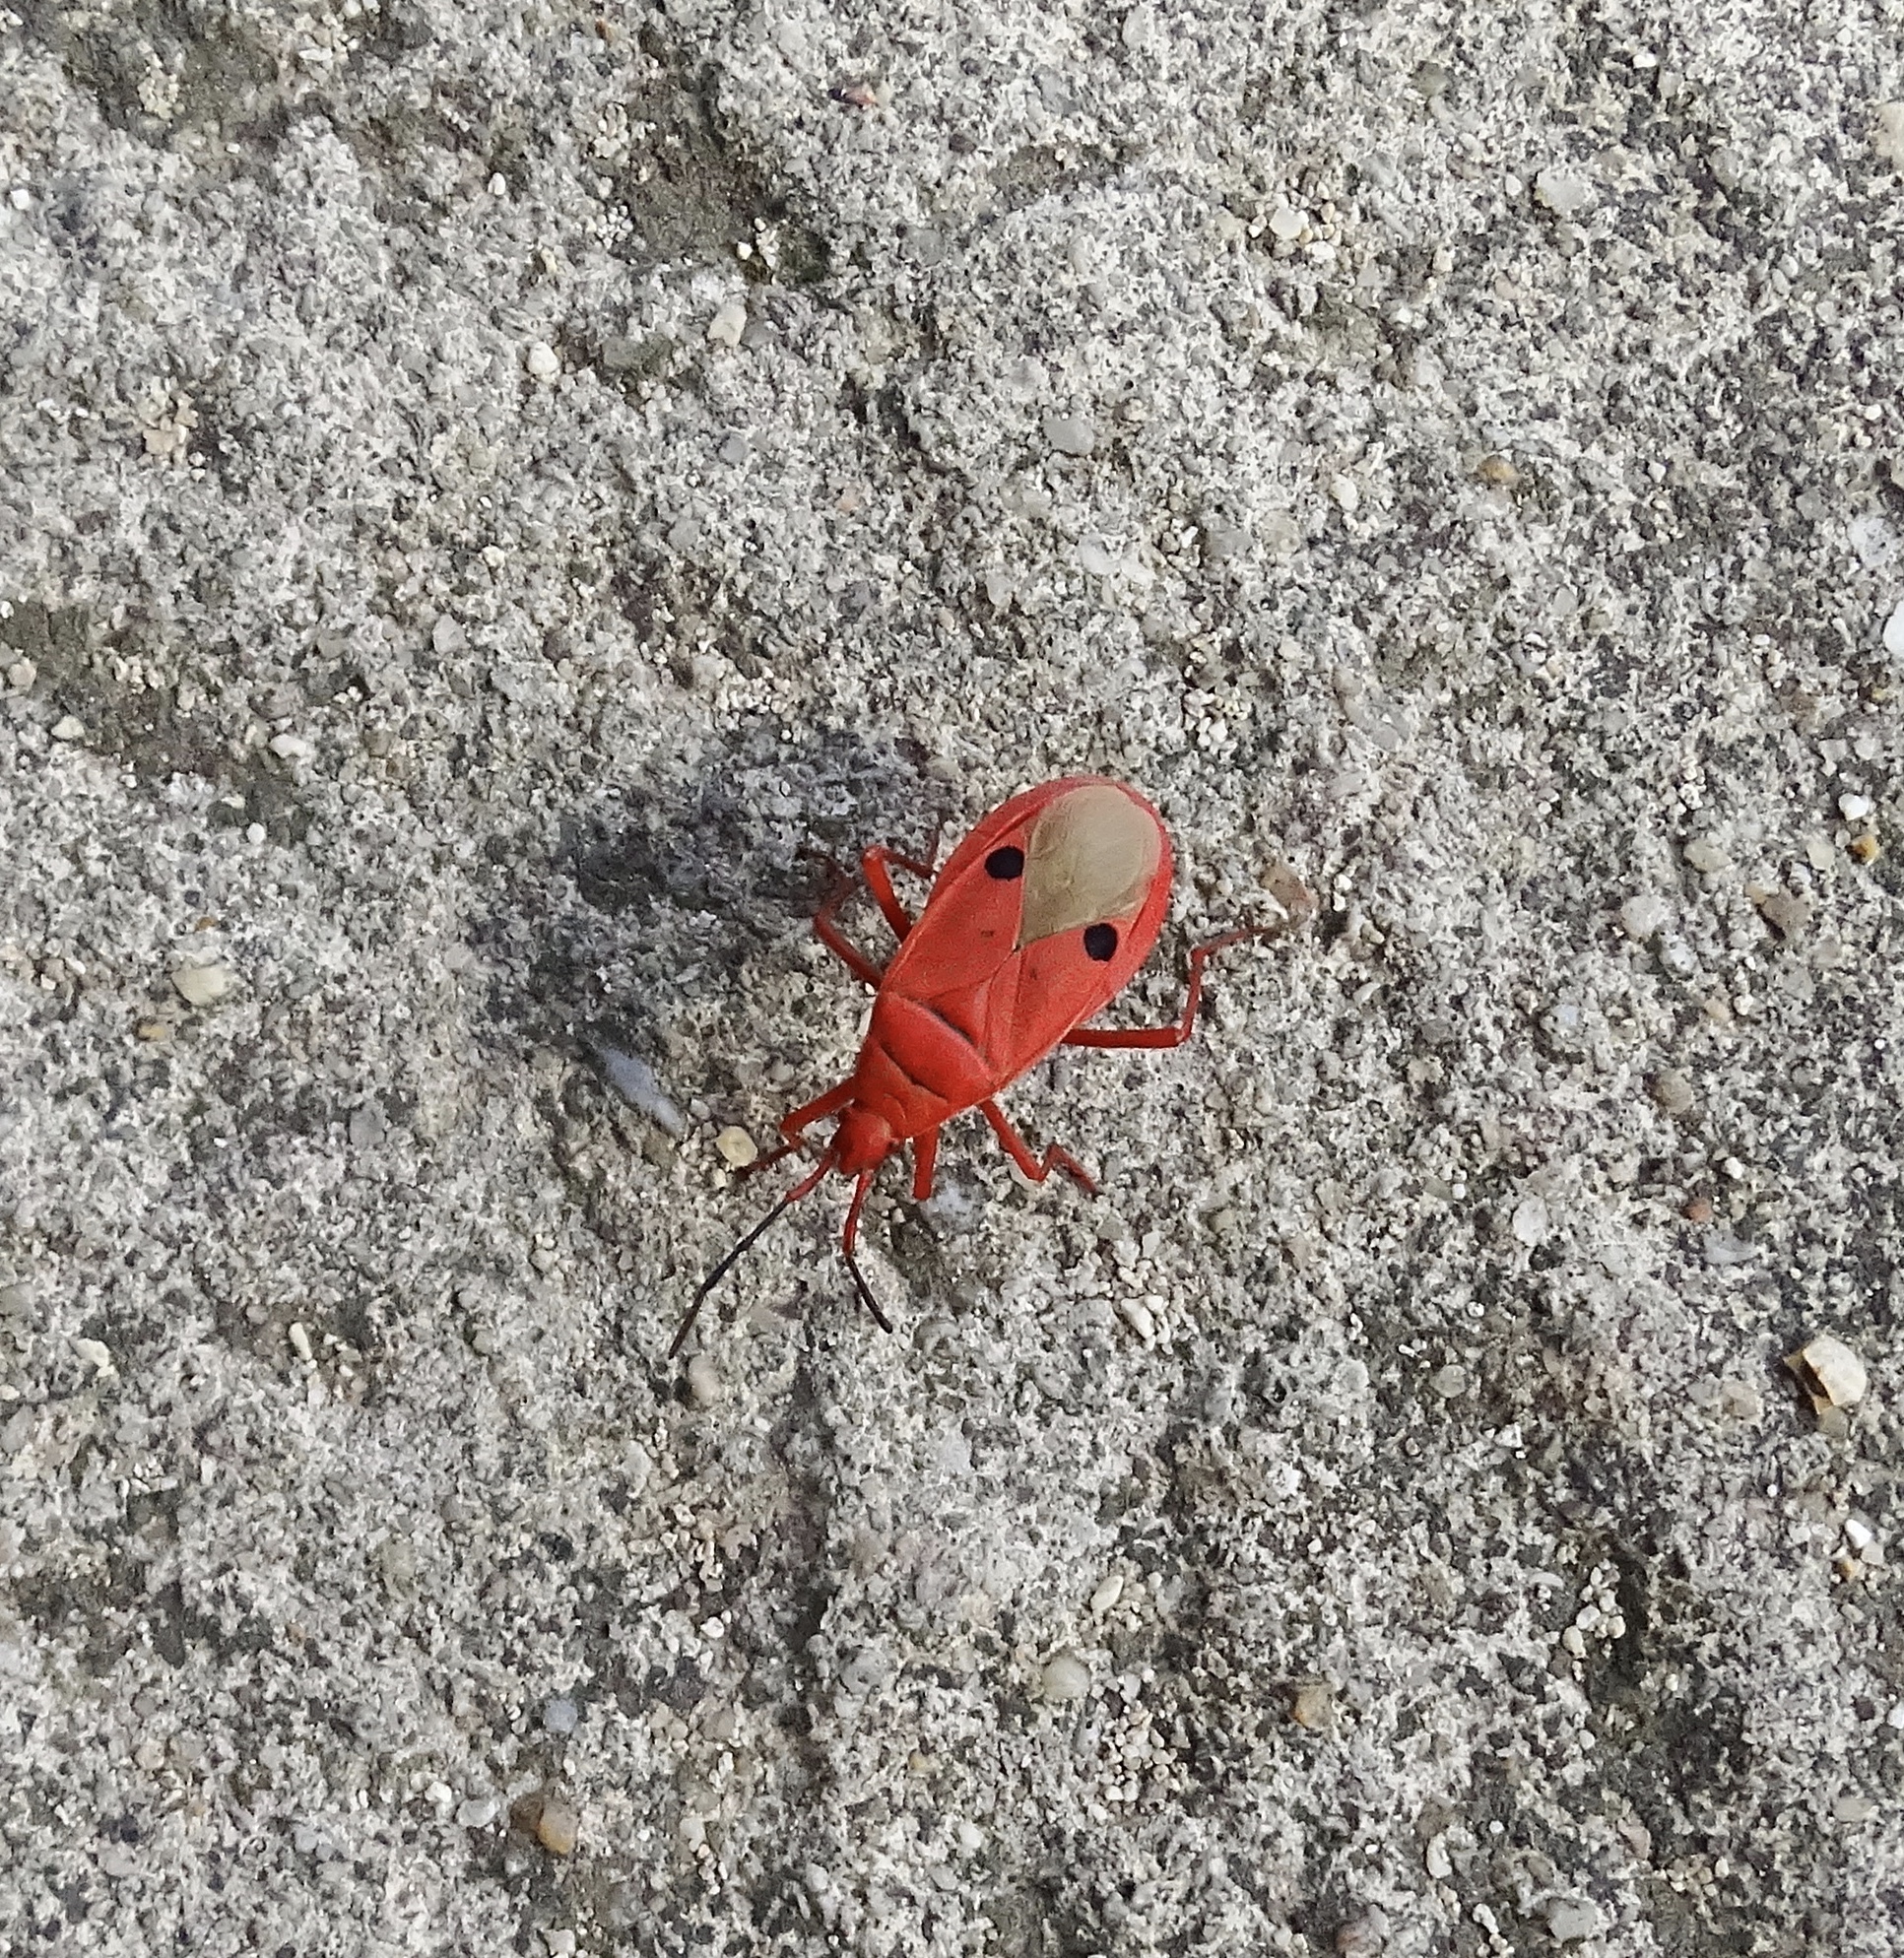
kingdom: Animalia
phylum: Arthropoda
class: Insecta
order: Hemiptera
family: Pyrrhocoridae
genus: Probergrothius
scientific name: Probergrothius nigricornis
